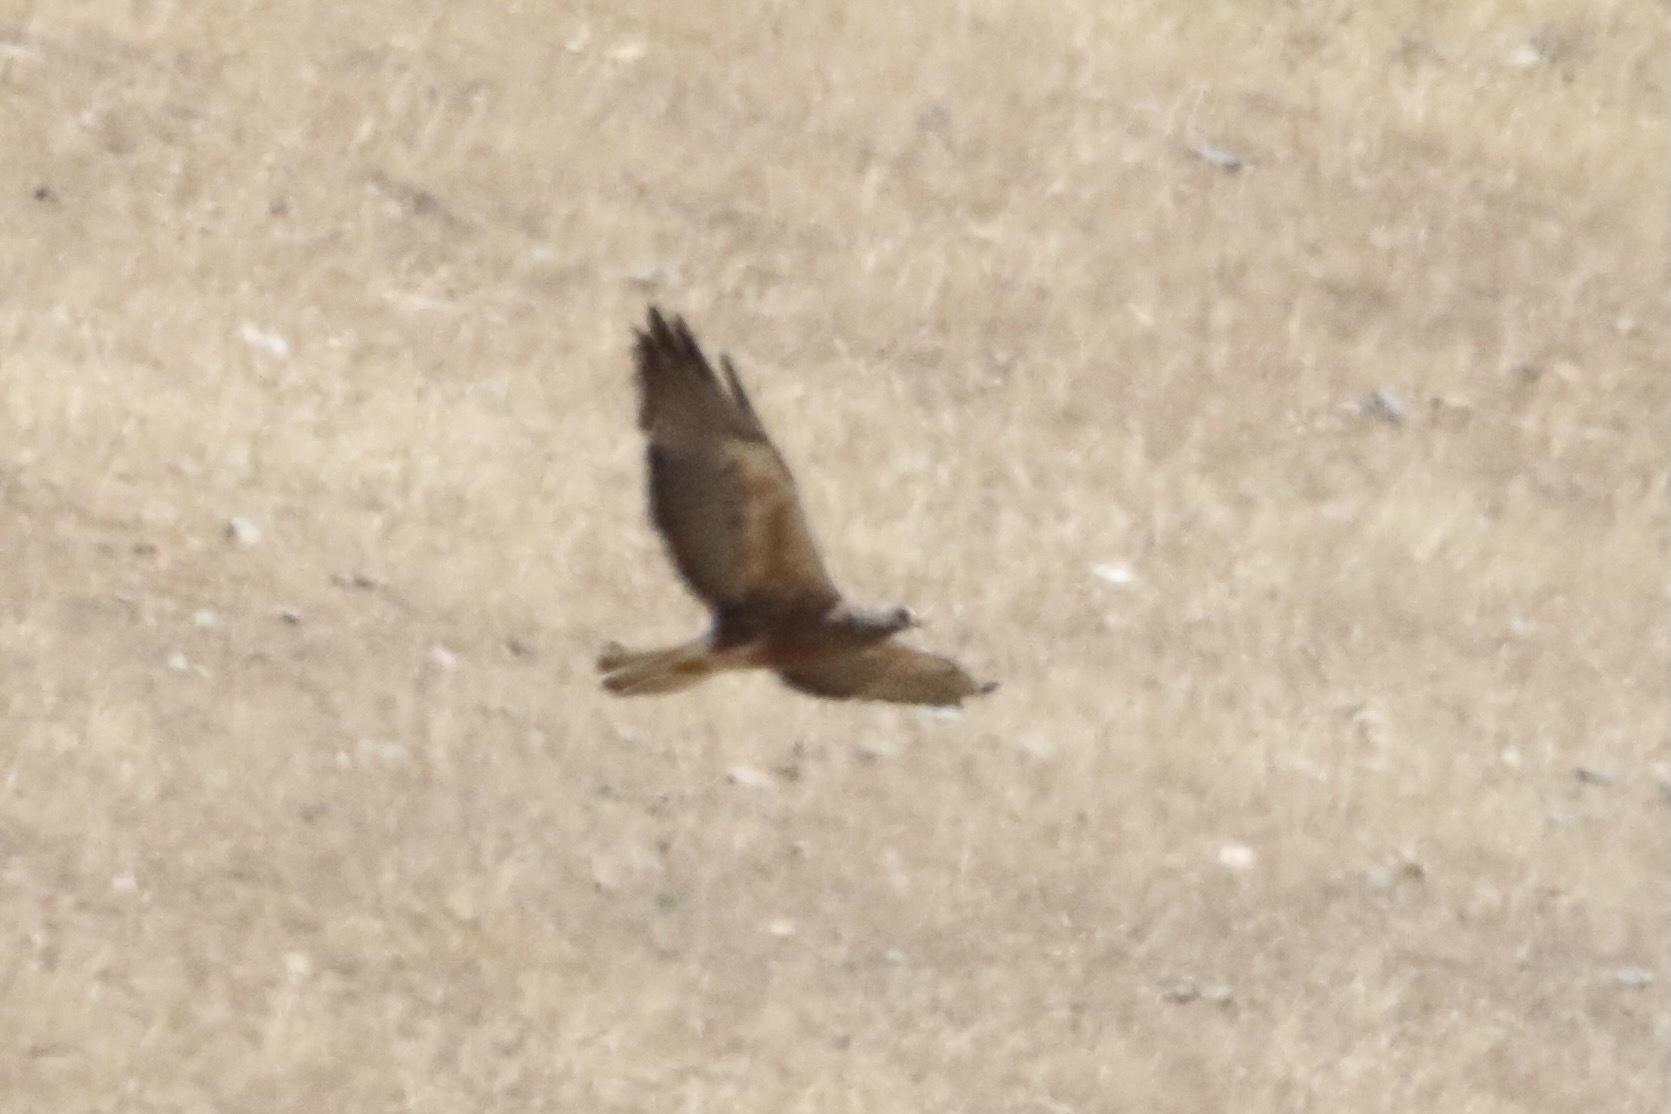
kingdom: Animalia
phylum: Chordata
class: Aves
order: Accipitriformes
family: Accipitridae
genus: Buteo
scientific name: Buteo swainsoni
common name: Swainson's hawk
